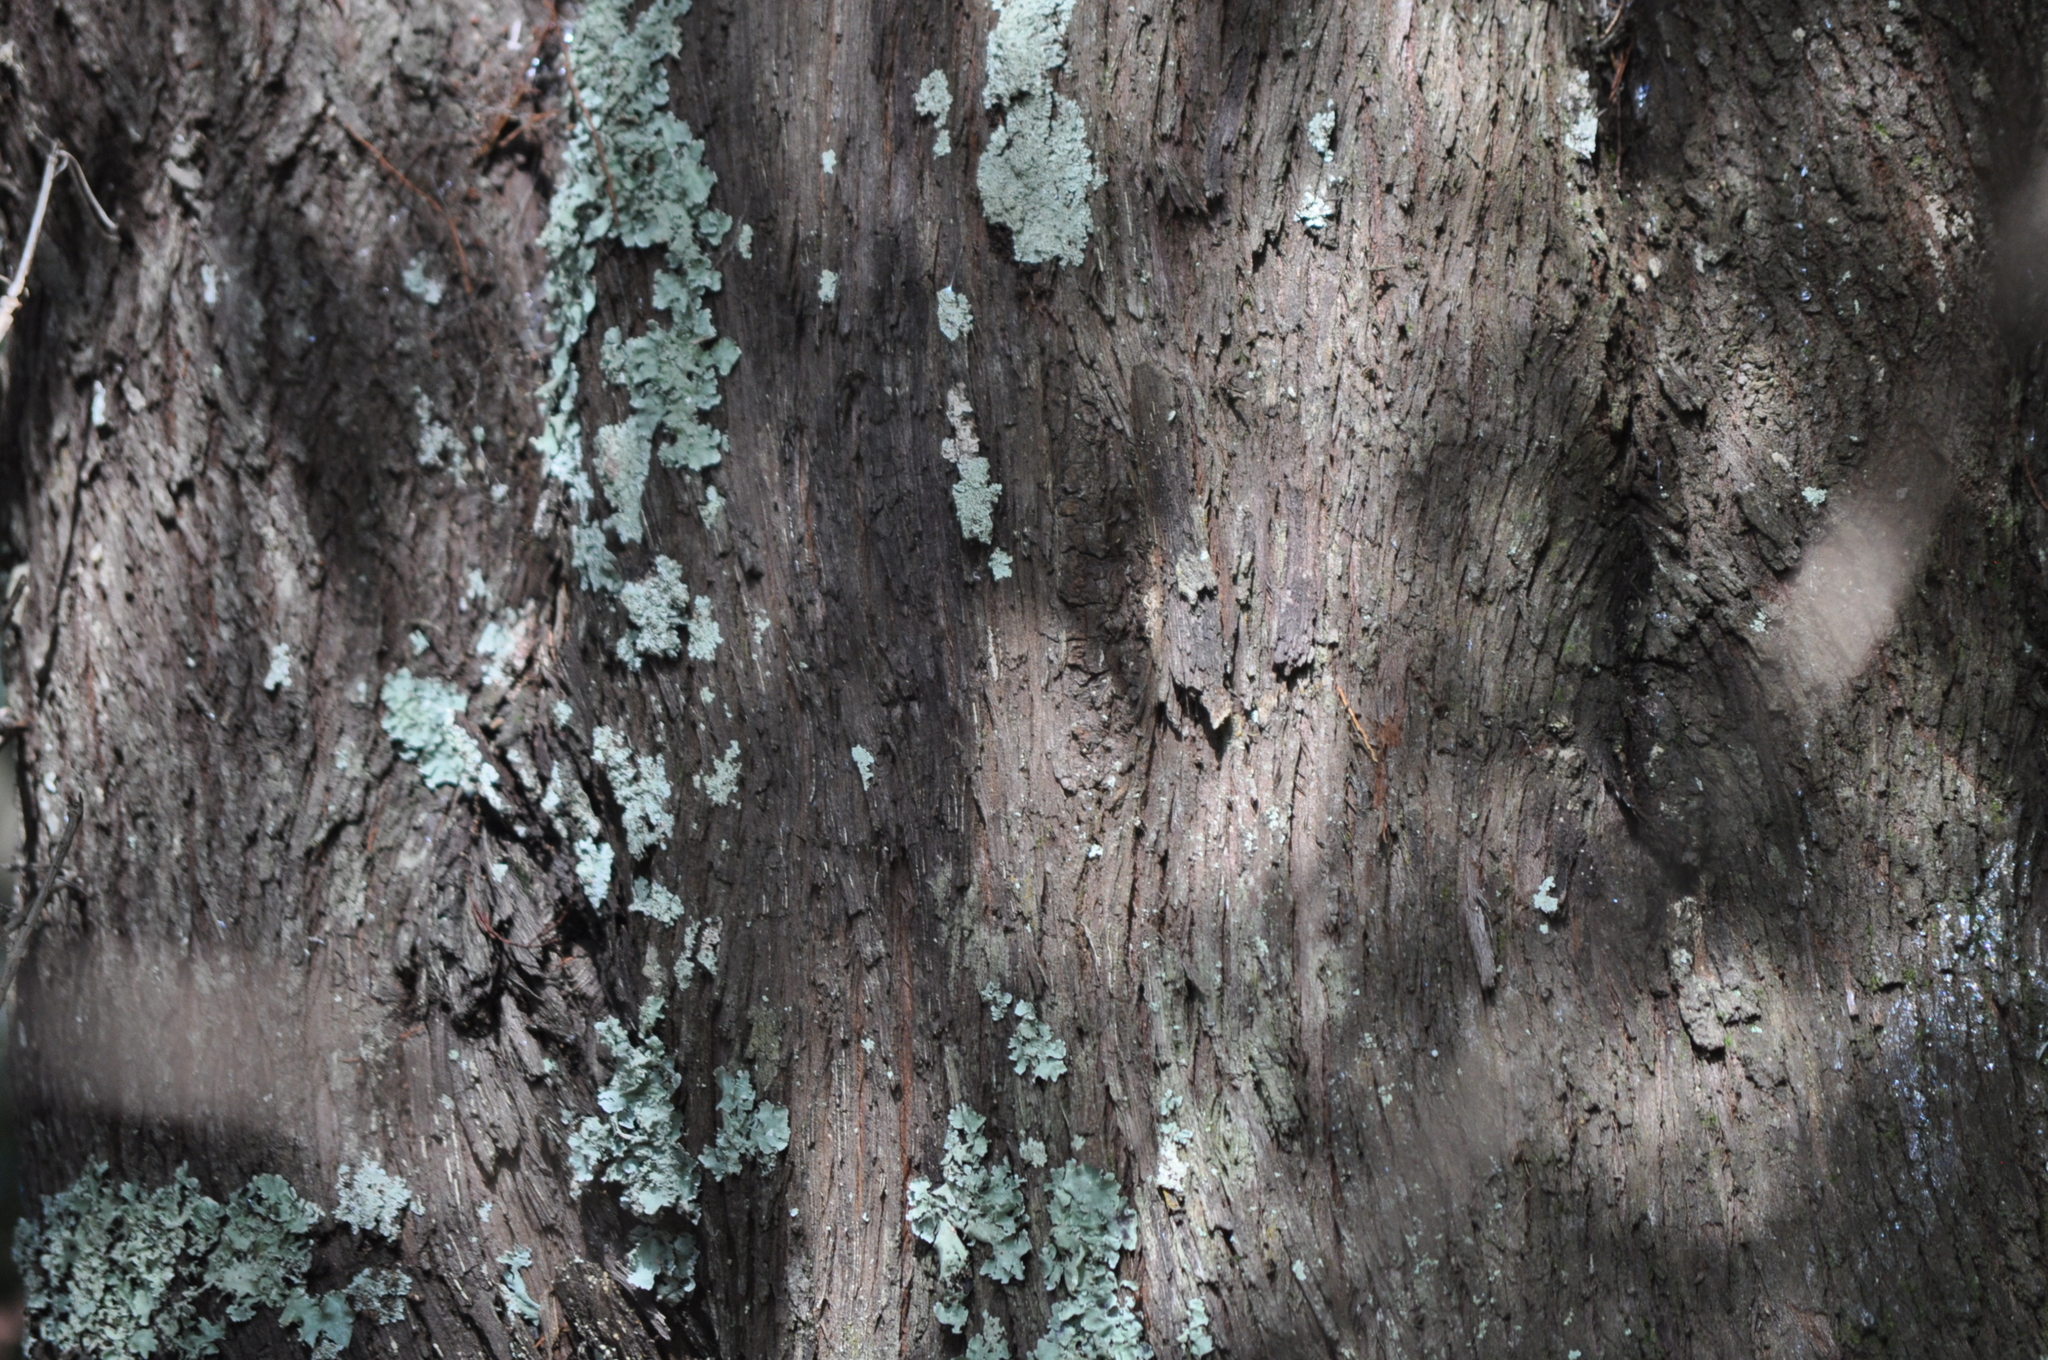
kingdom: Plantae
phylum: Tracheophyta
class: Pinopsida
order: Pinales
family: Cupressaceae
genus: Callitris
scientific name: Callitris rhomboidea
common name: Illawara mountain pine
